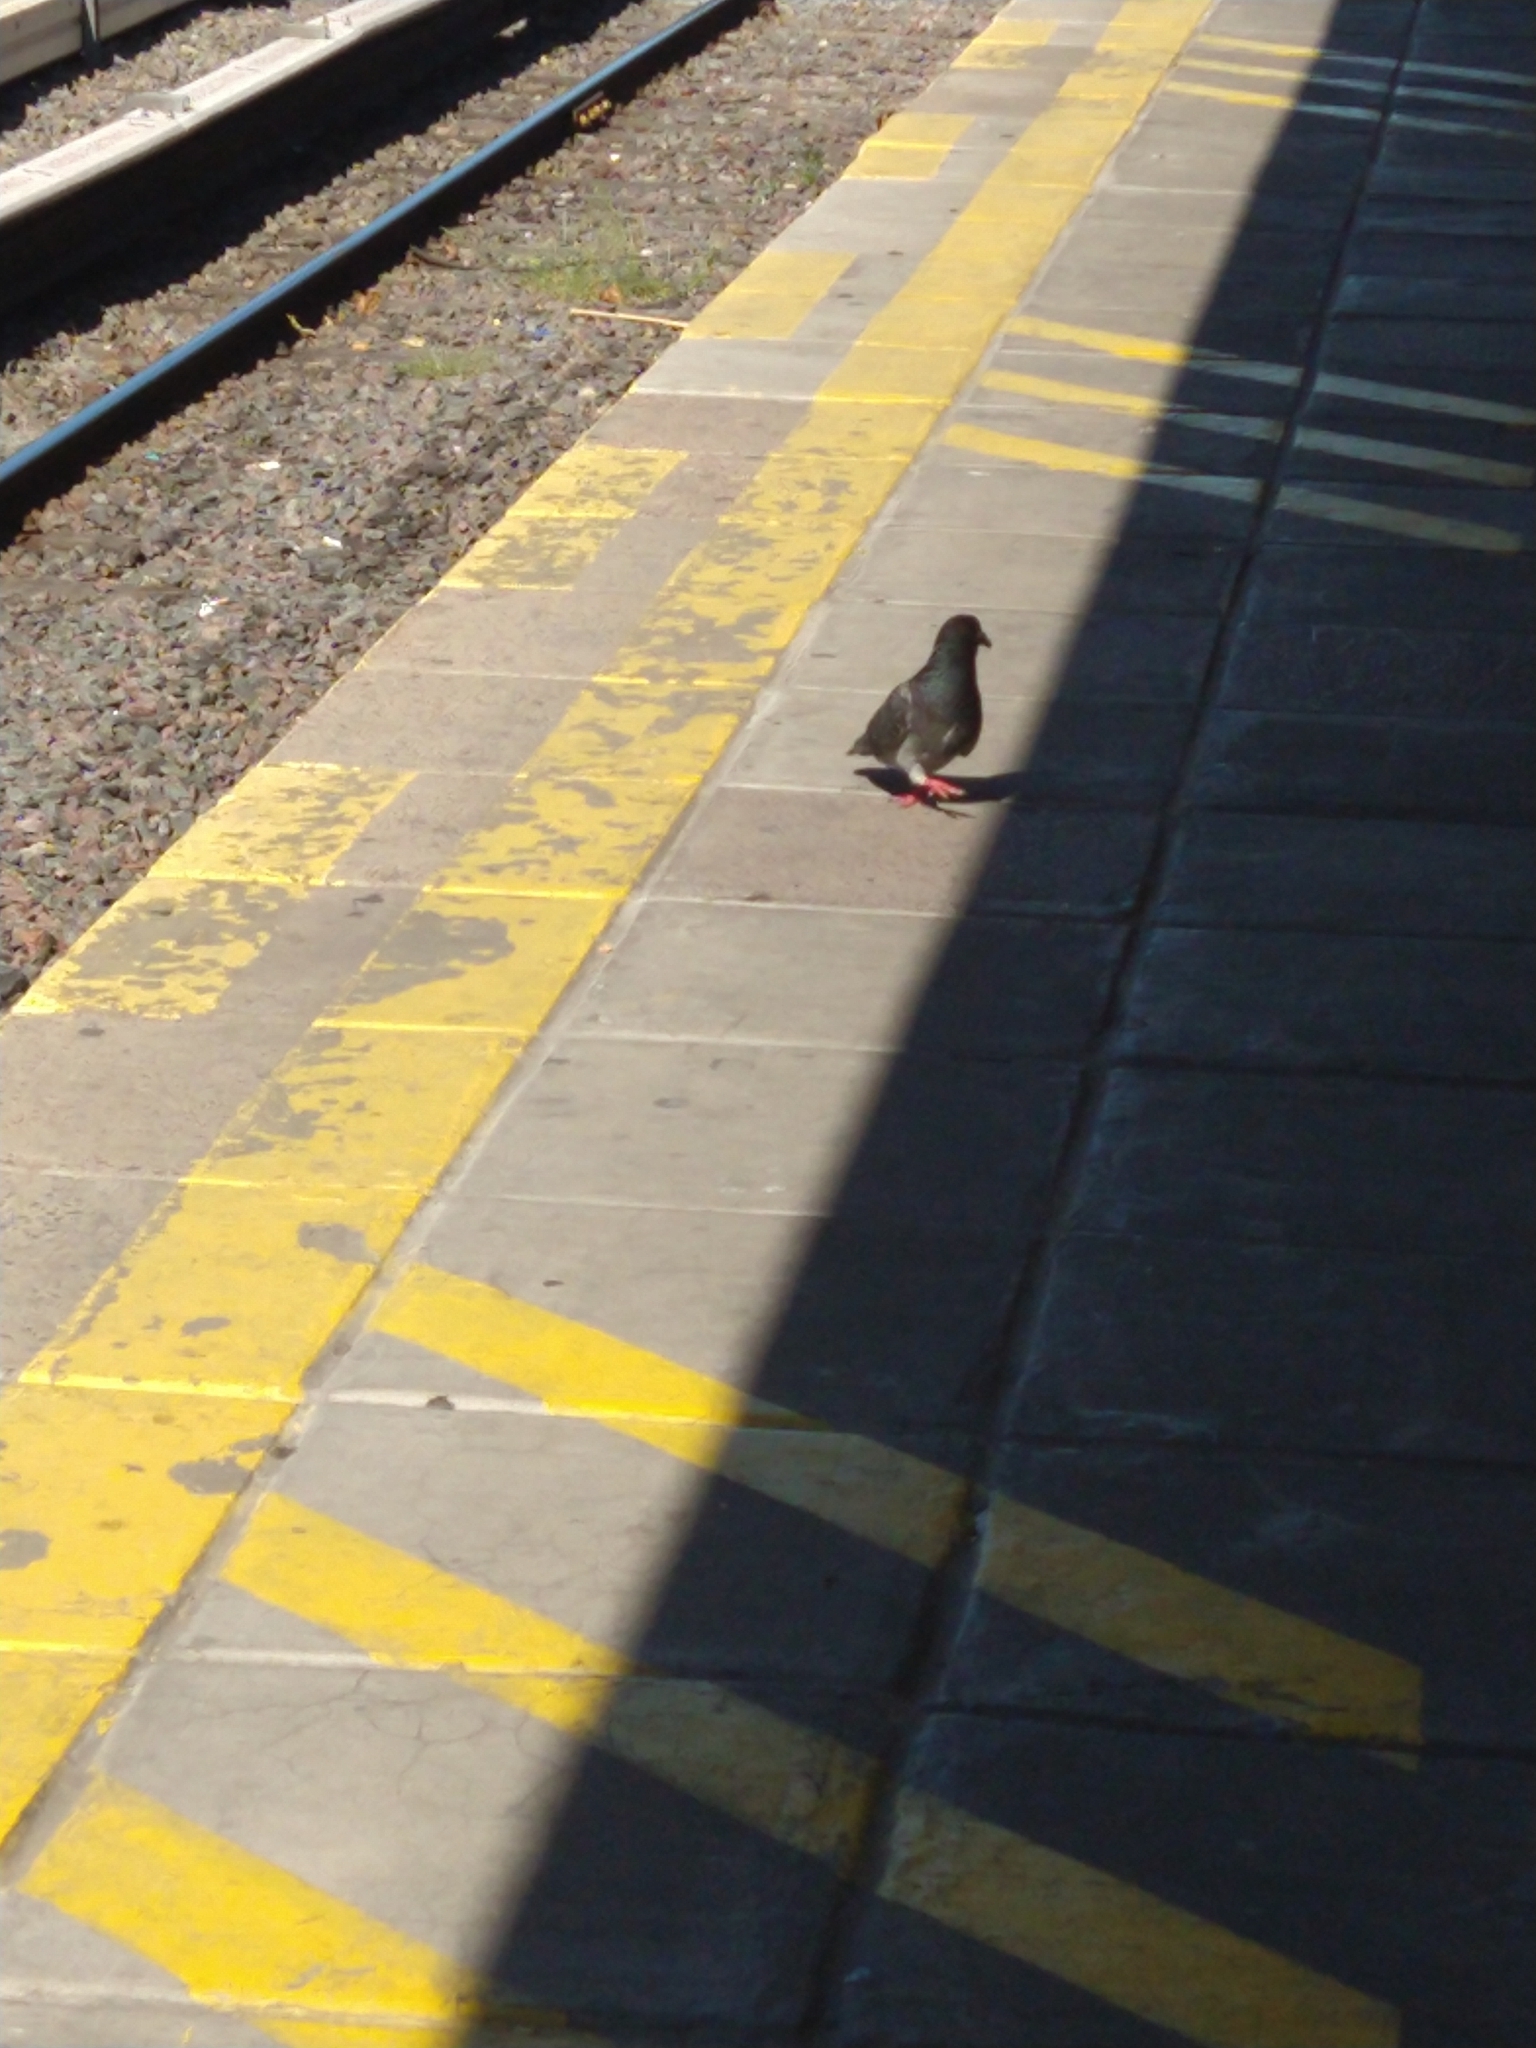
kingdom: Animalia
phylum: Chordata
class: Aves
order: Columbiformes
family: Columbidae
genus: Columba
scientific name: Columba livia
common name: Rock pigeon
